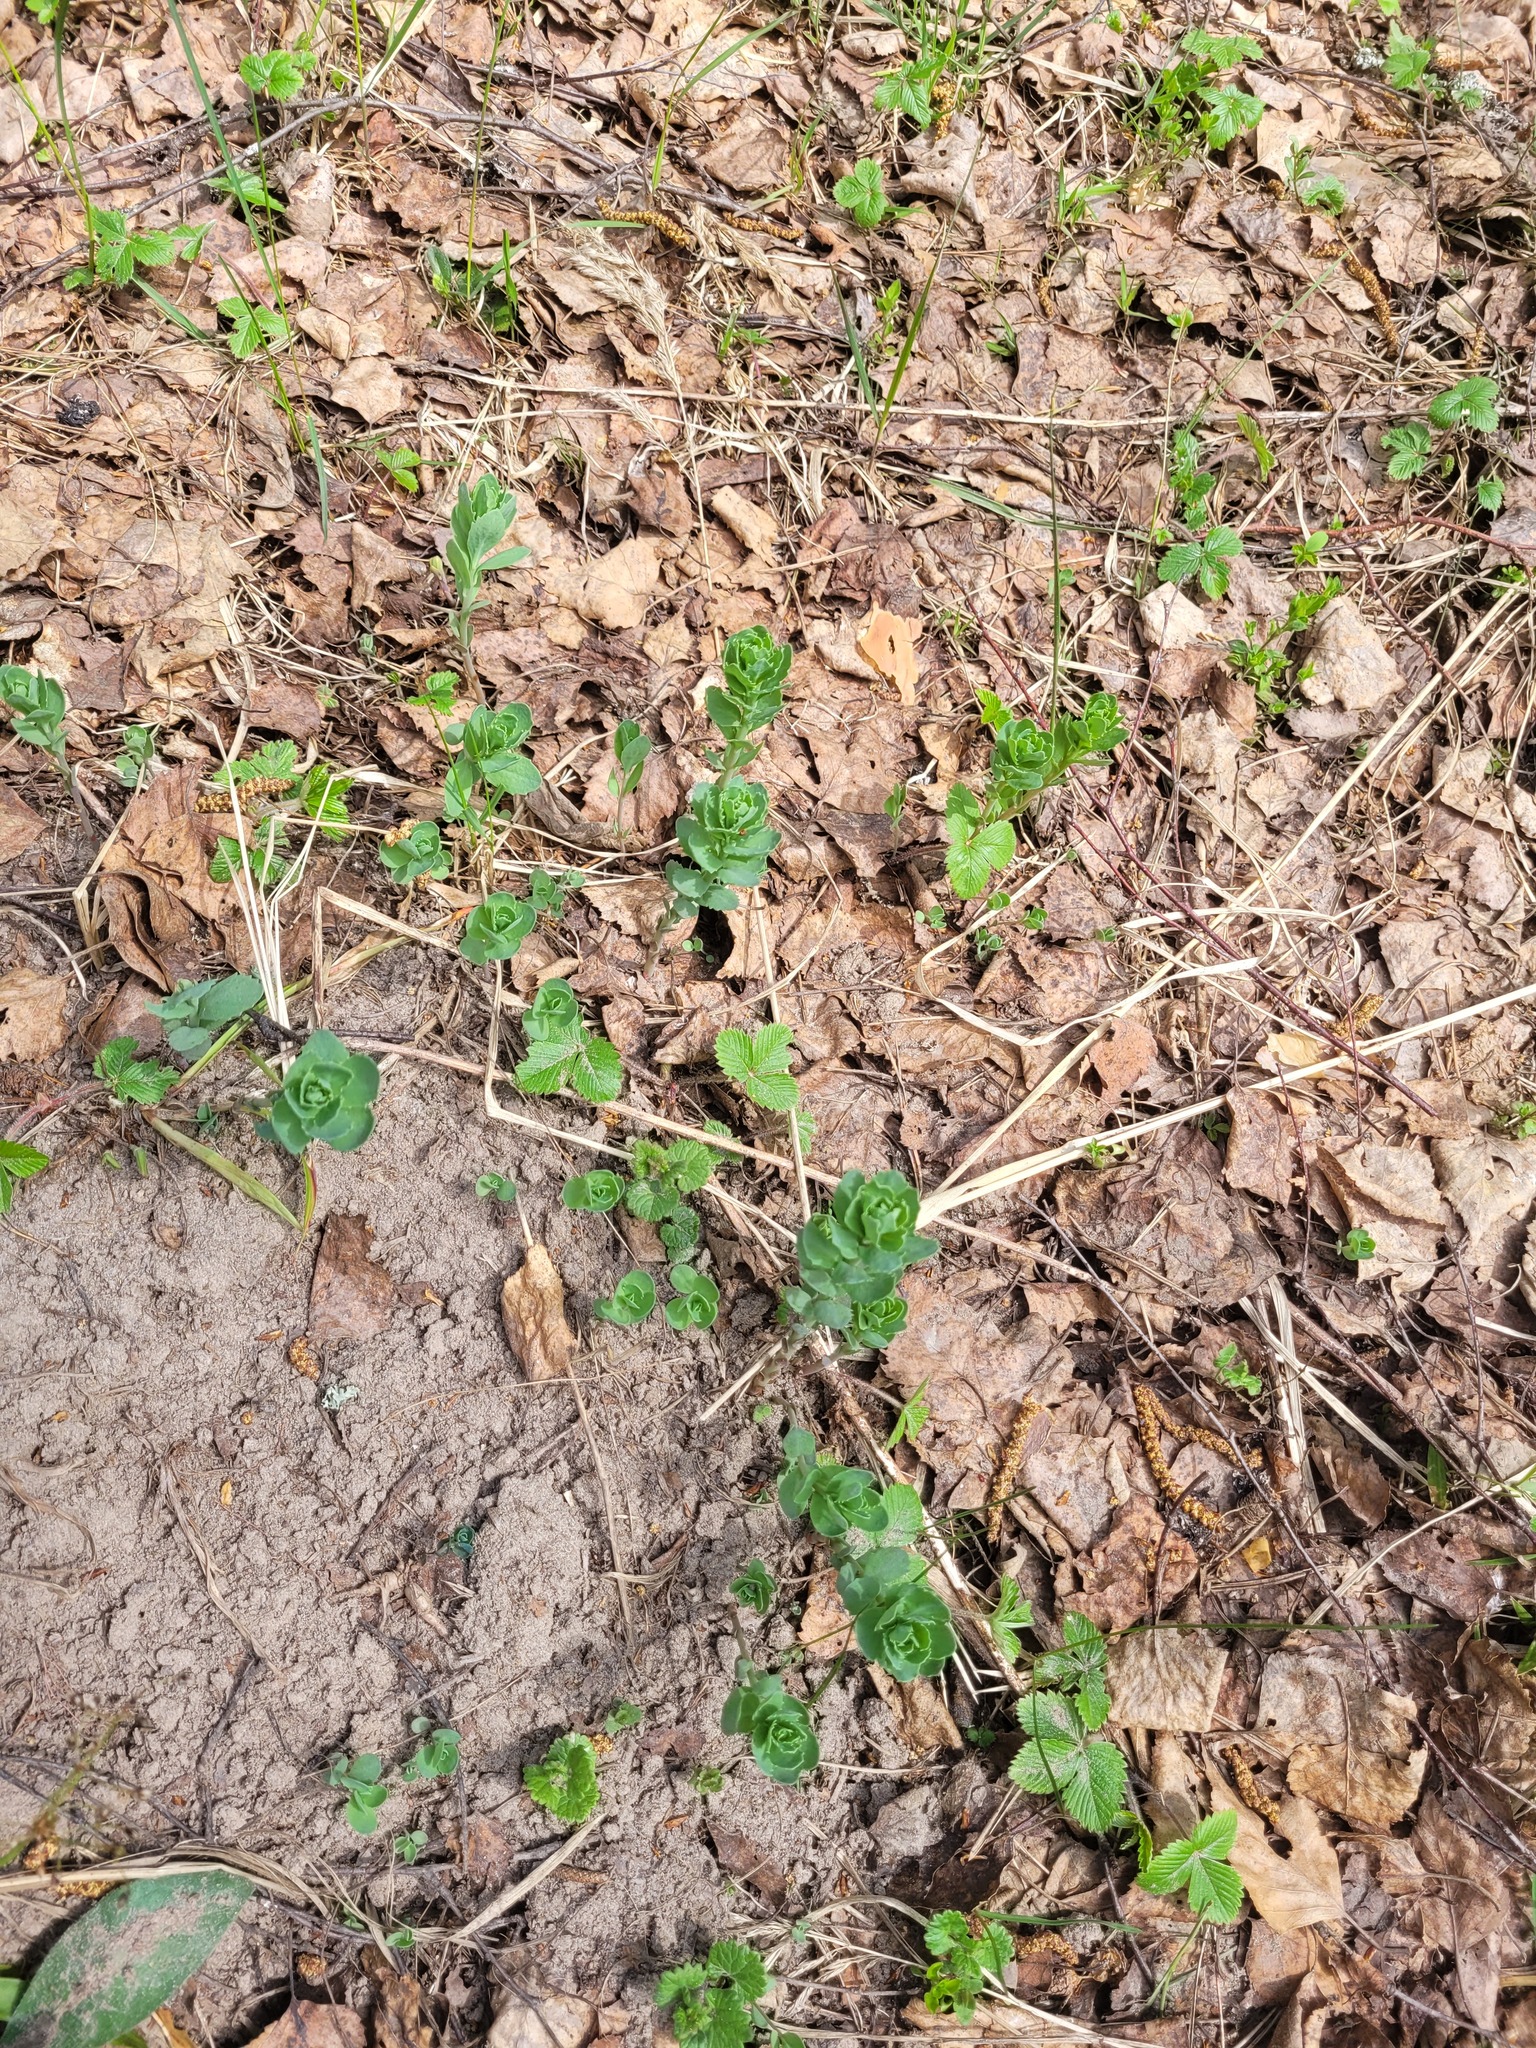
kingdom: Plantae
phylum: Tracheophyta
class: Magnoliopsida
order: Saxifragales
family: Crassulaceae
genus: Hylotelephium
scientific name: Hylotelephium telephium
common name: Live-forever
